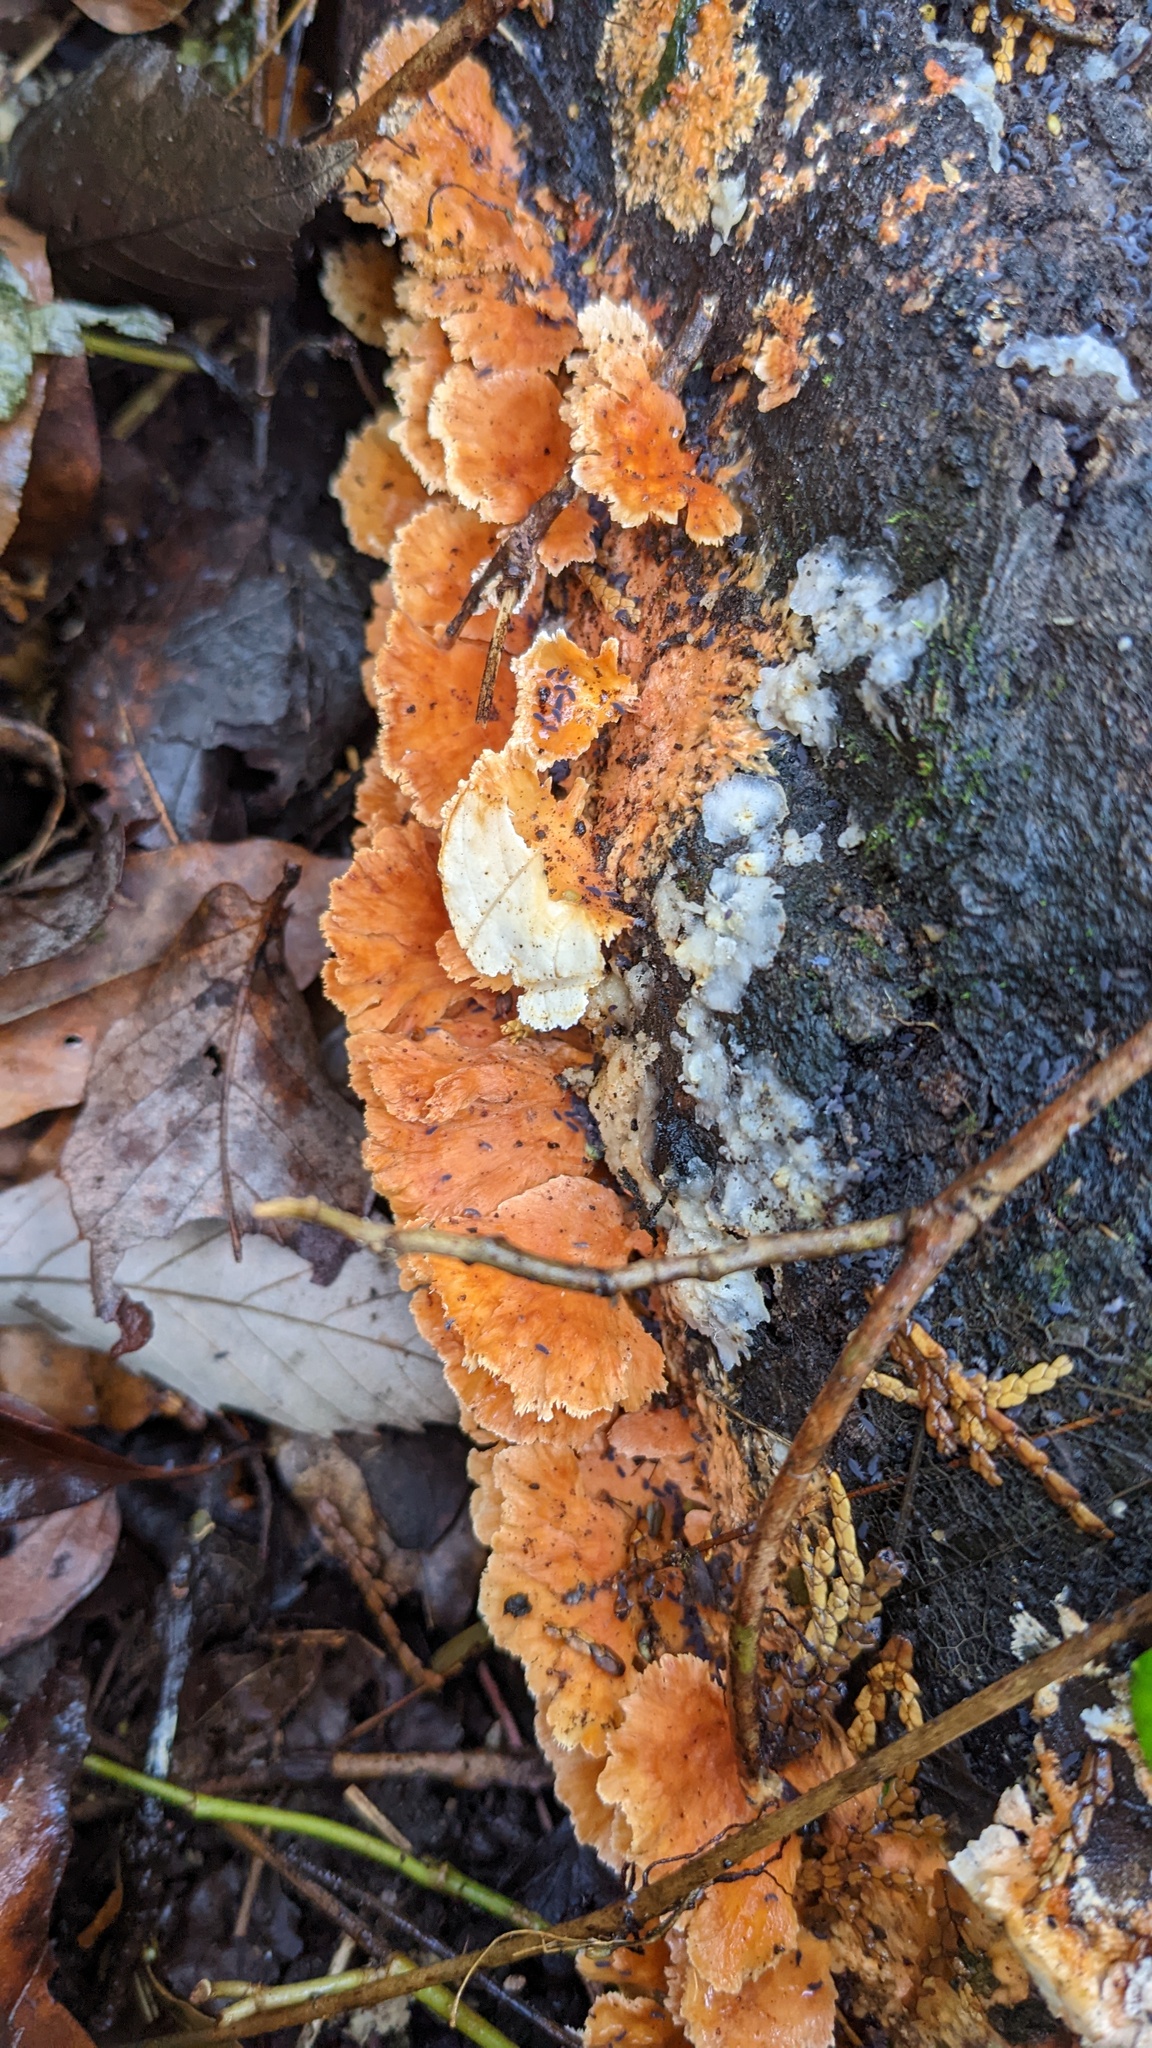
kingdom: Fungi
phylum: Basidiomycota
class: Agaricomycetes
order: Polyporales
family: Irpicaceae
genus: Irpex
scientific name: Irpex consors
